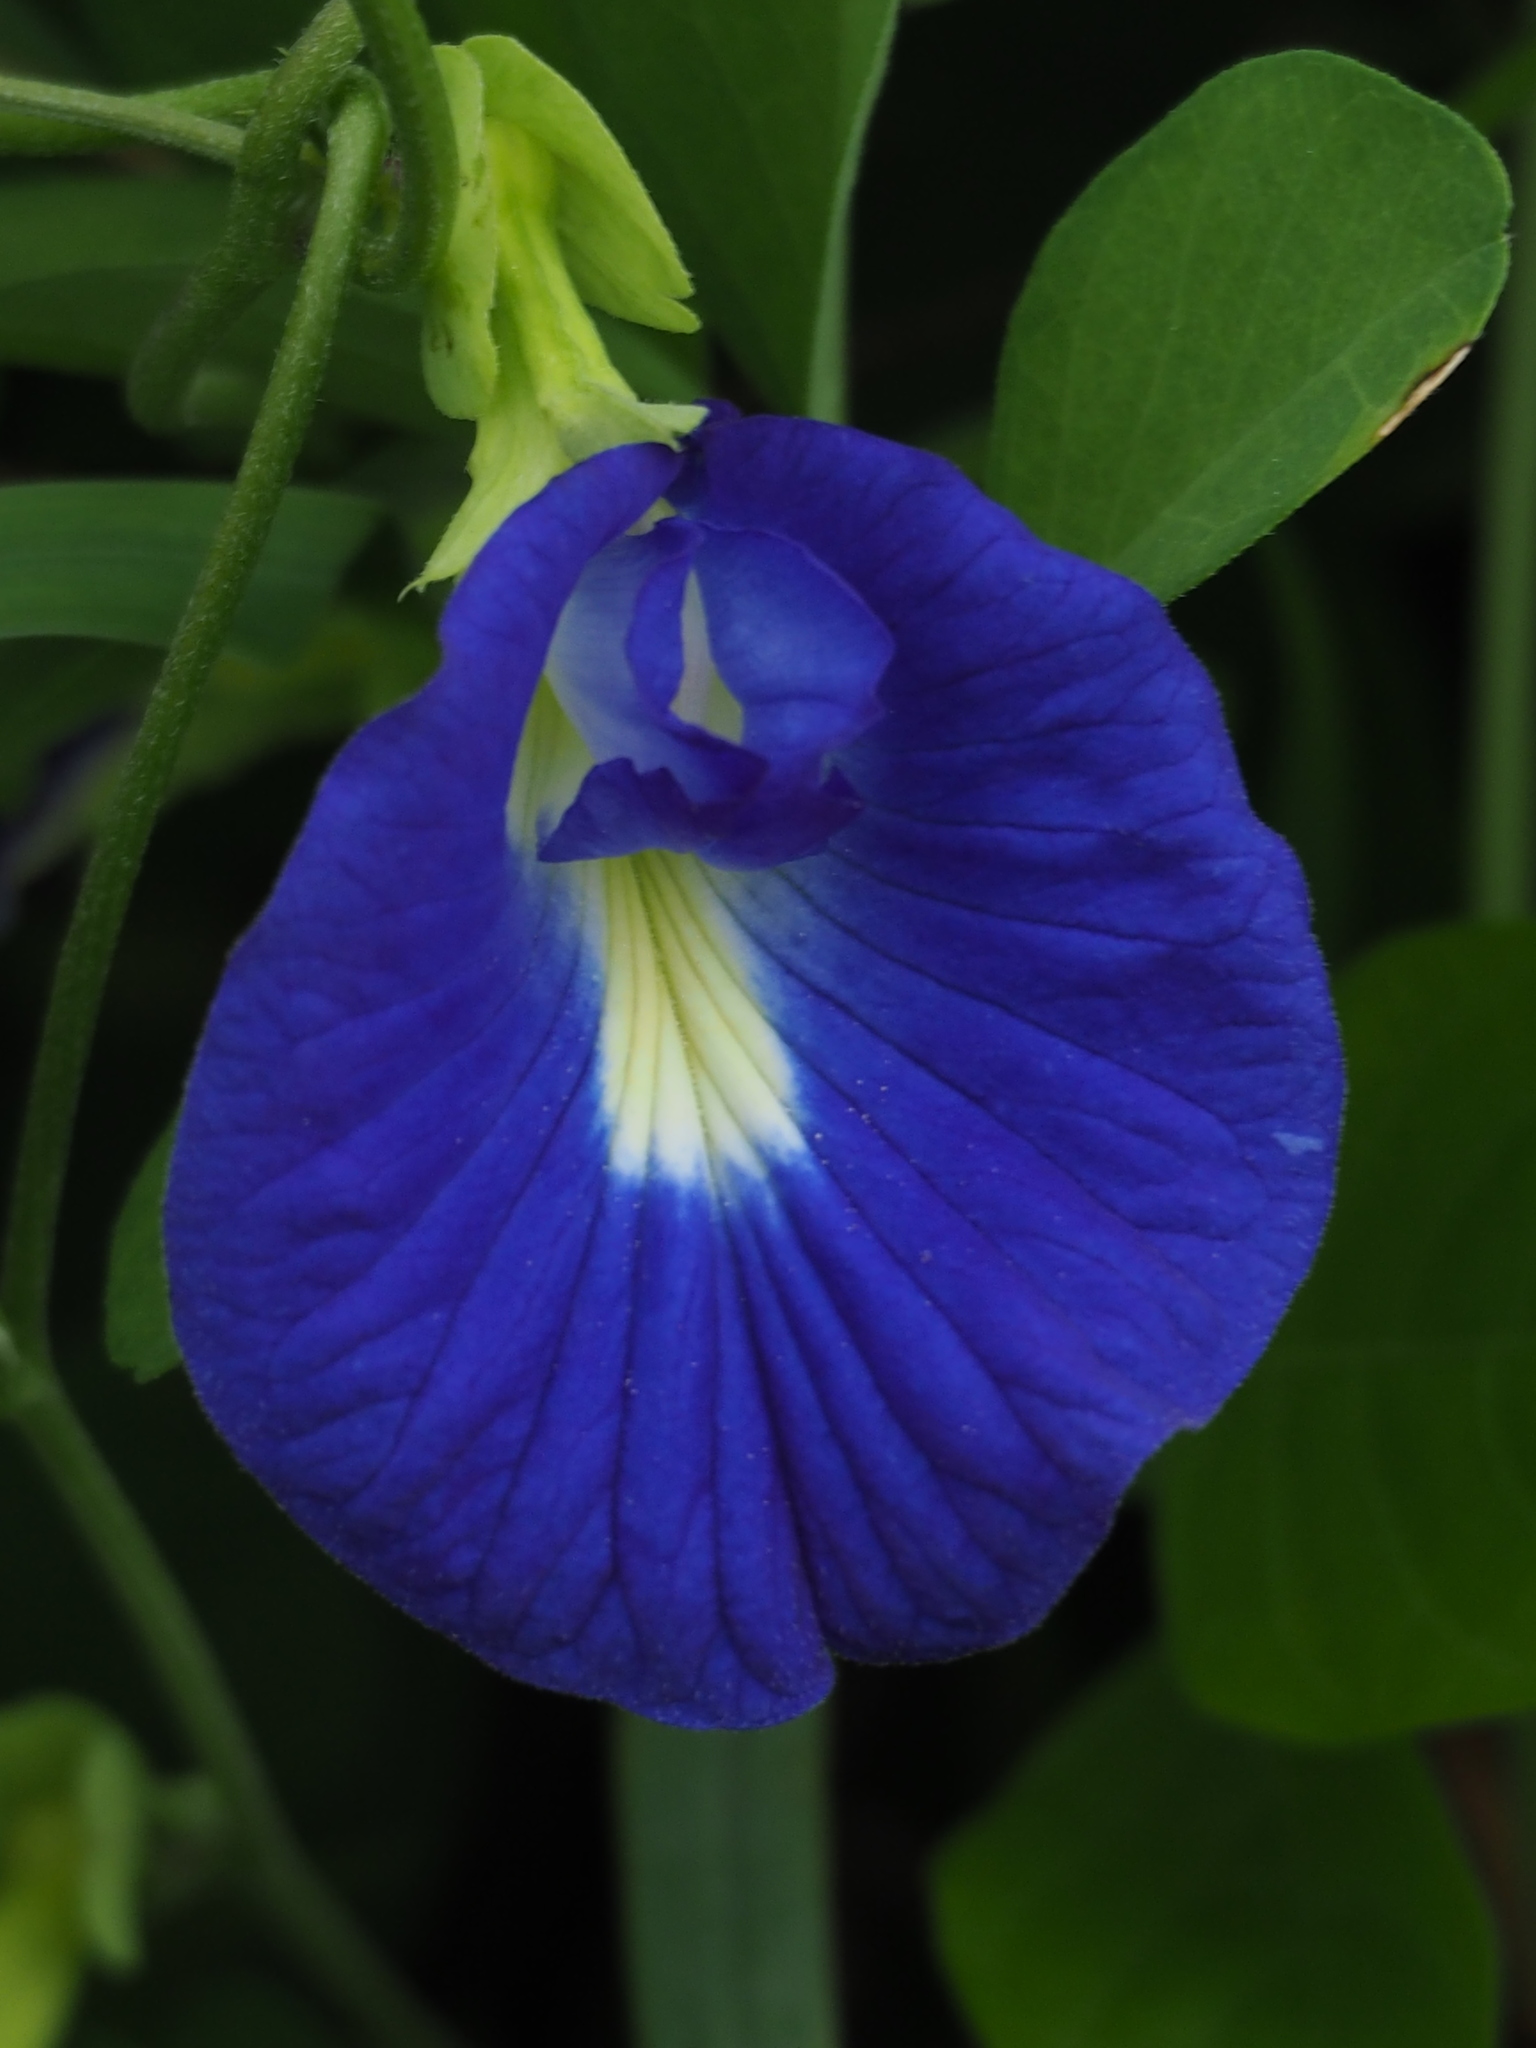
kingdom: Plantae
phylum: Tracheophyta
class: Magnoliopsida
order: Fabales
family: Fabaceae
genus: Clitoria
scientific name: Clitoria ternatea
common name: Asian pigeonwings
